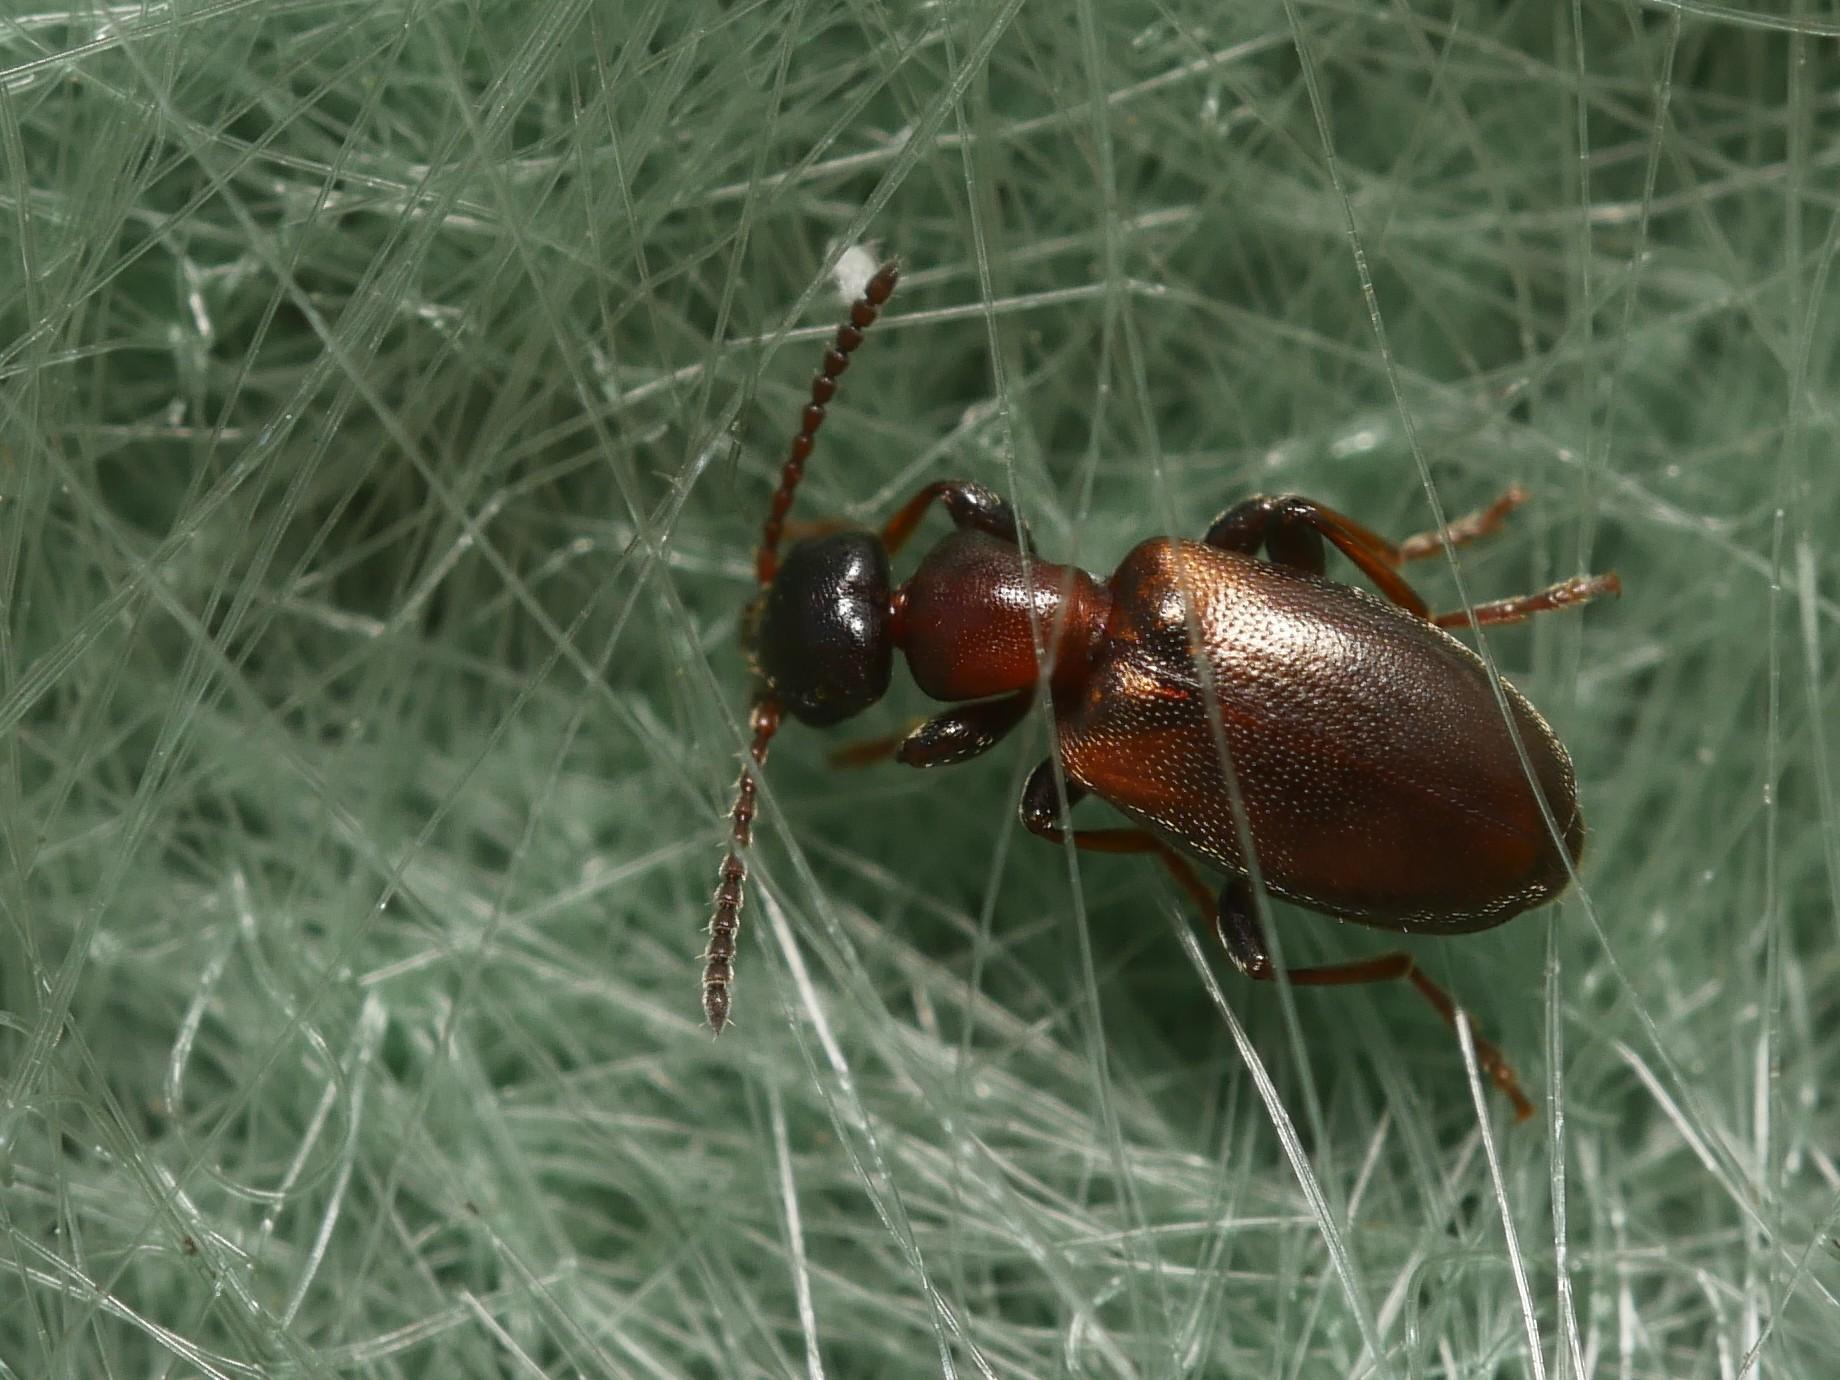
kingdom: Animalia
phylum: Arthropoda
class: Insecta
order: Coleoptera
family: Anthicidae
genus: Omonadus
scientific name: Omonadus floralis
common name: Narrownecked grain beetle
